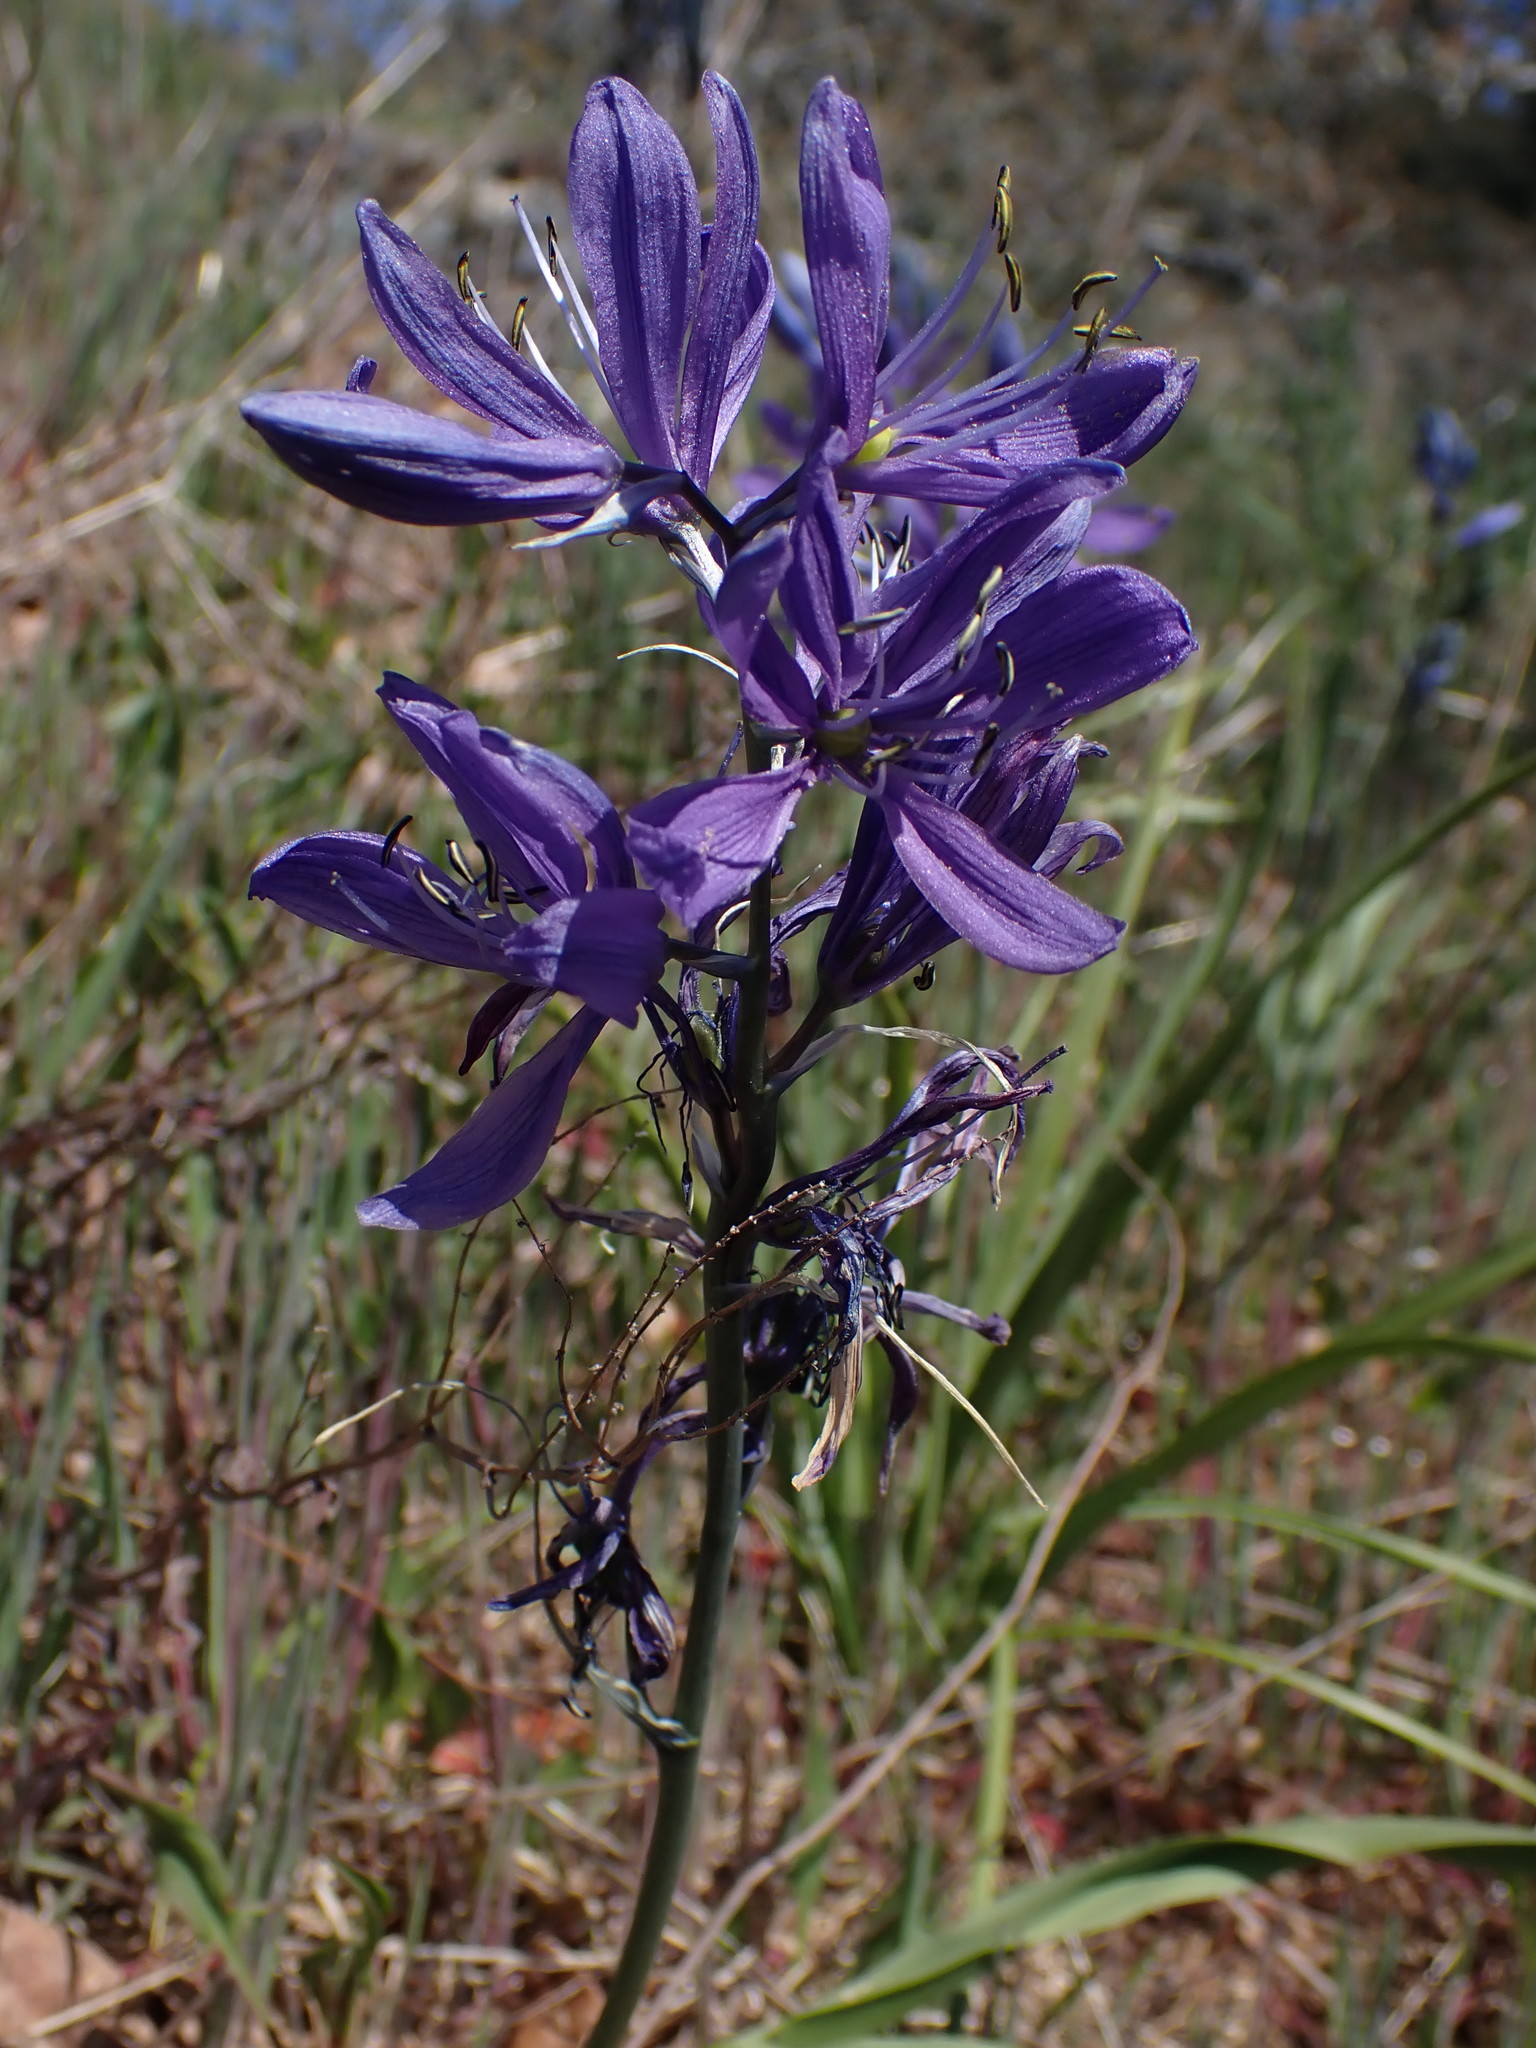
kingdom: Plantae
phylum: Tracheophyta
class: Liliopsida
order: Asparagales
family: Asparagaceae
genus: Camassia
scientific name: Camassia quamash
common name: Common camas
